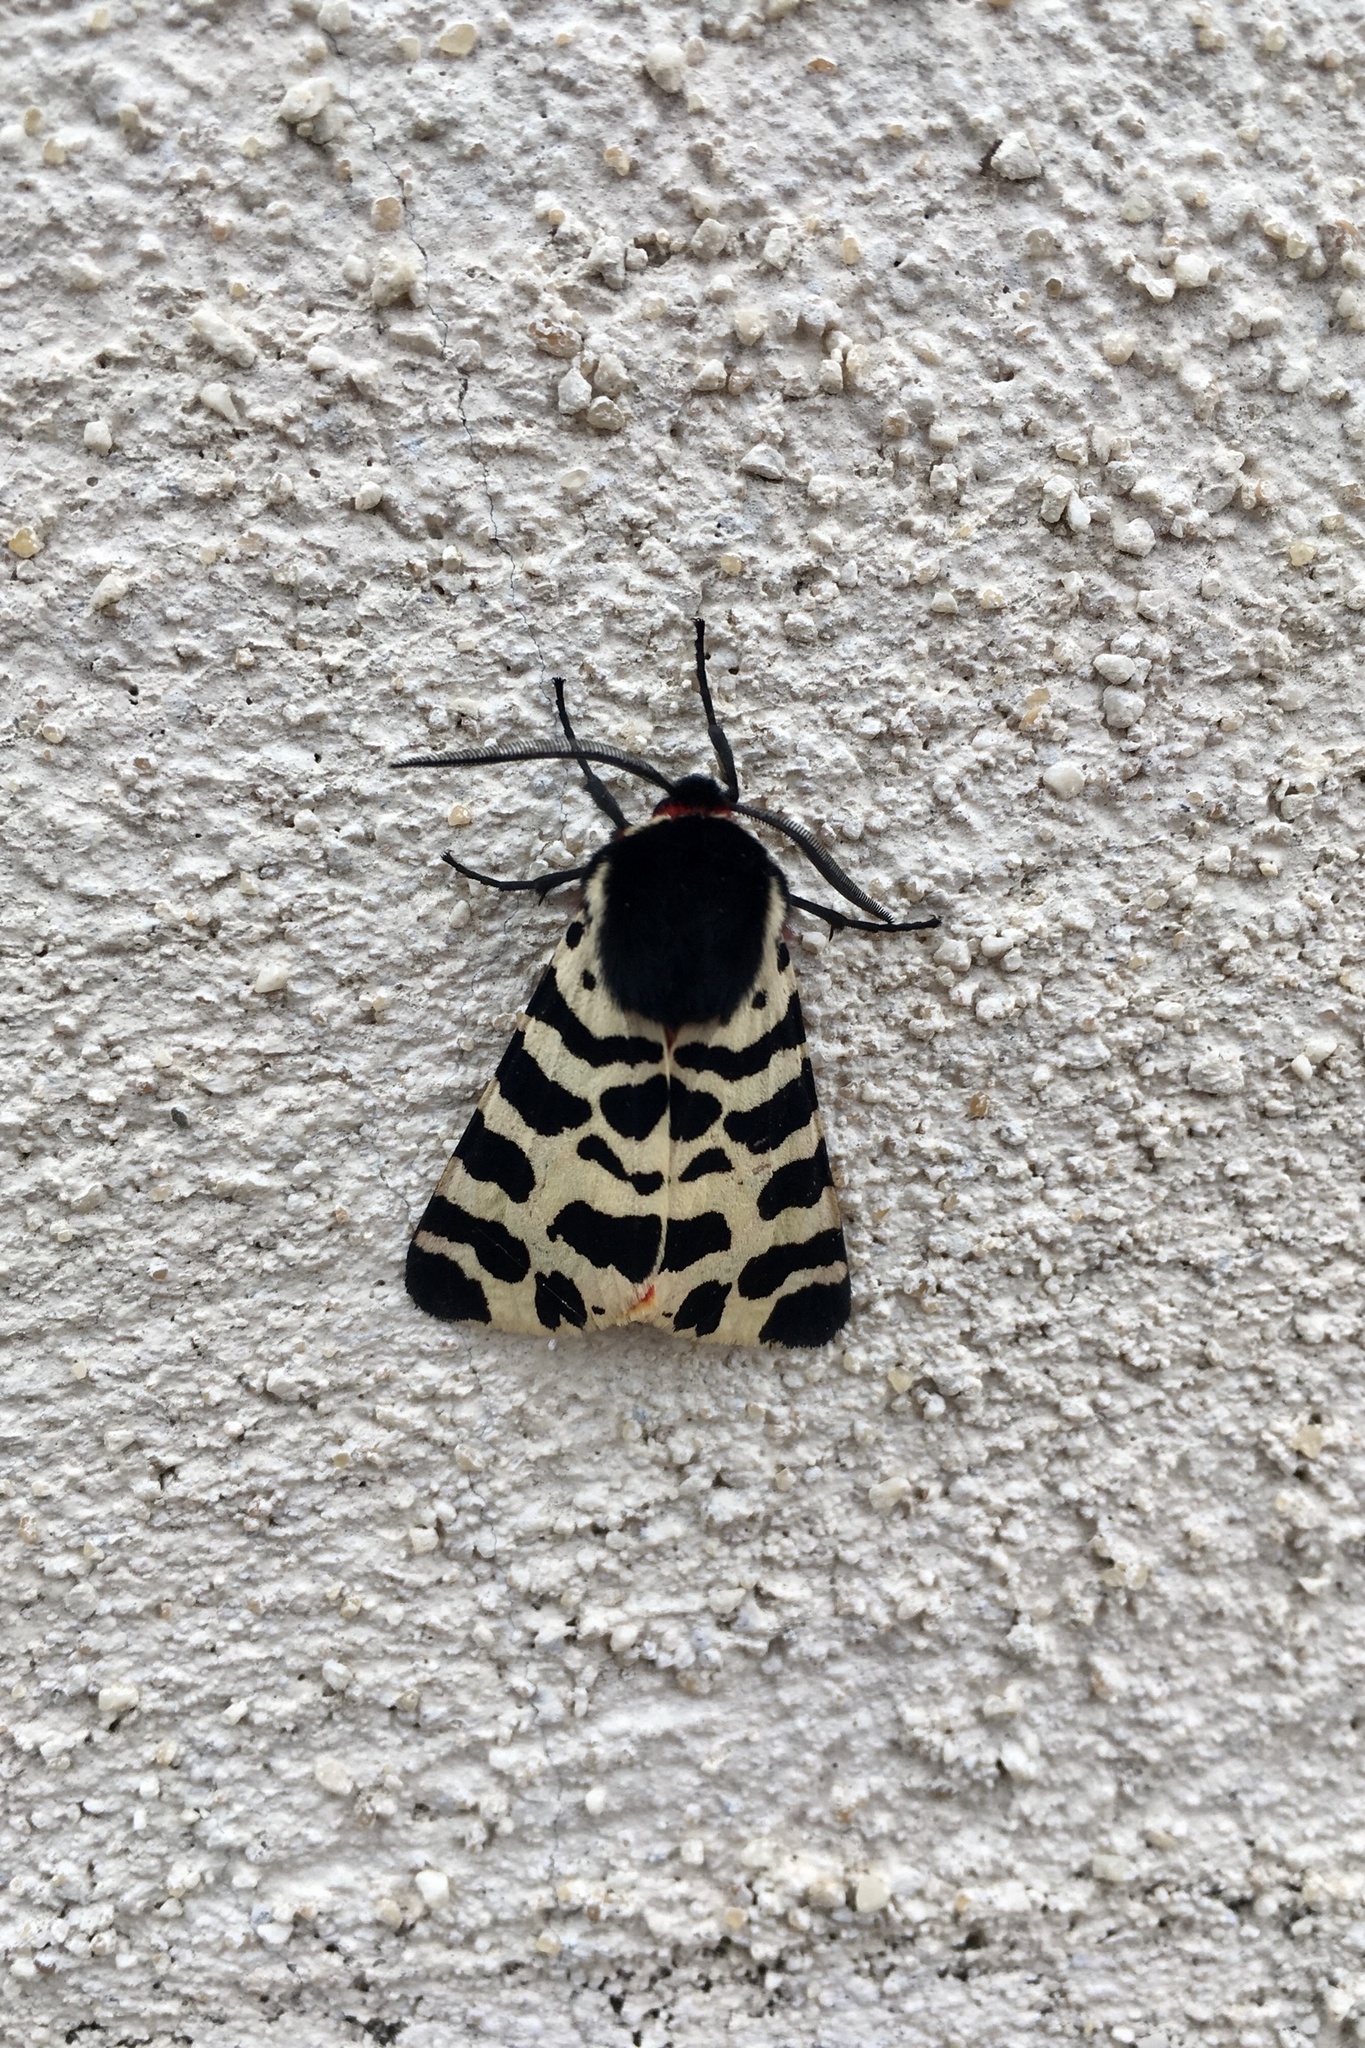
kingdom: Animalia
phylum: Arthropoda
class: Insecta
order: Lepidoptera
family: Erebidae
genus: Arctia
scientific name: Arctia tigrina
